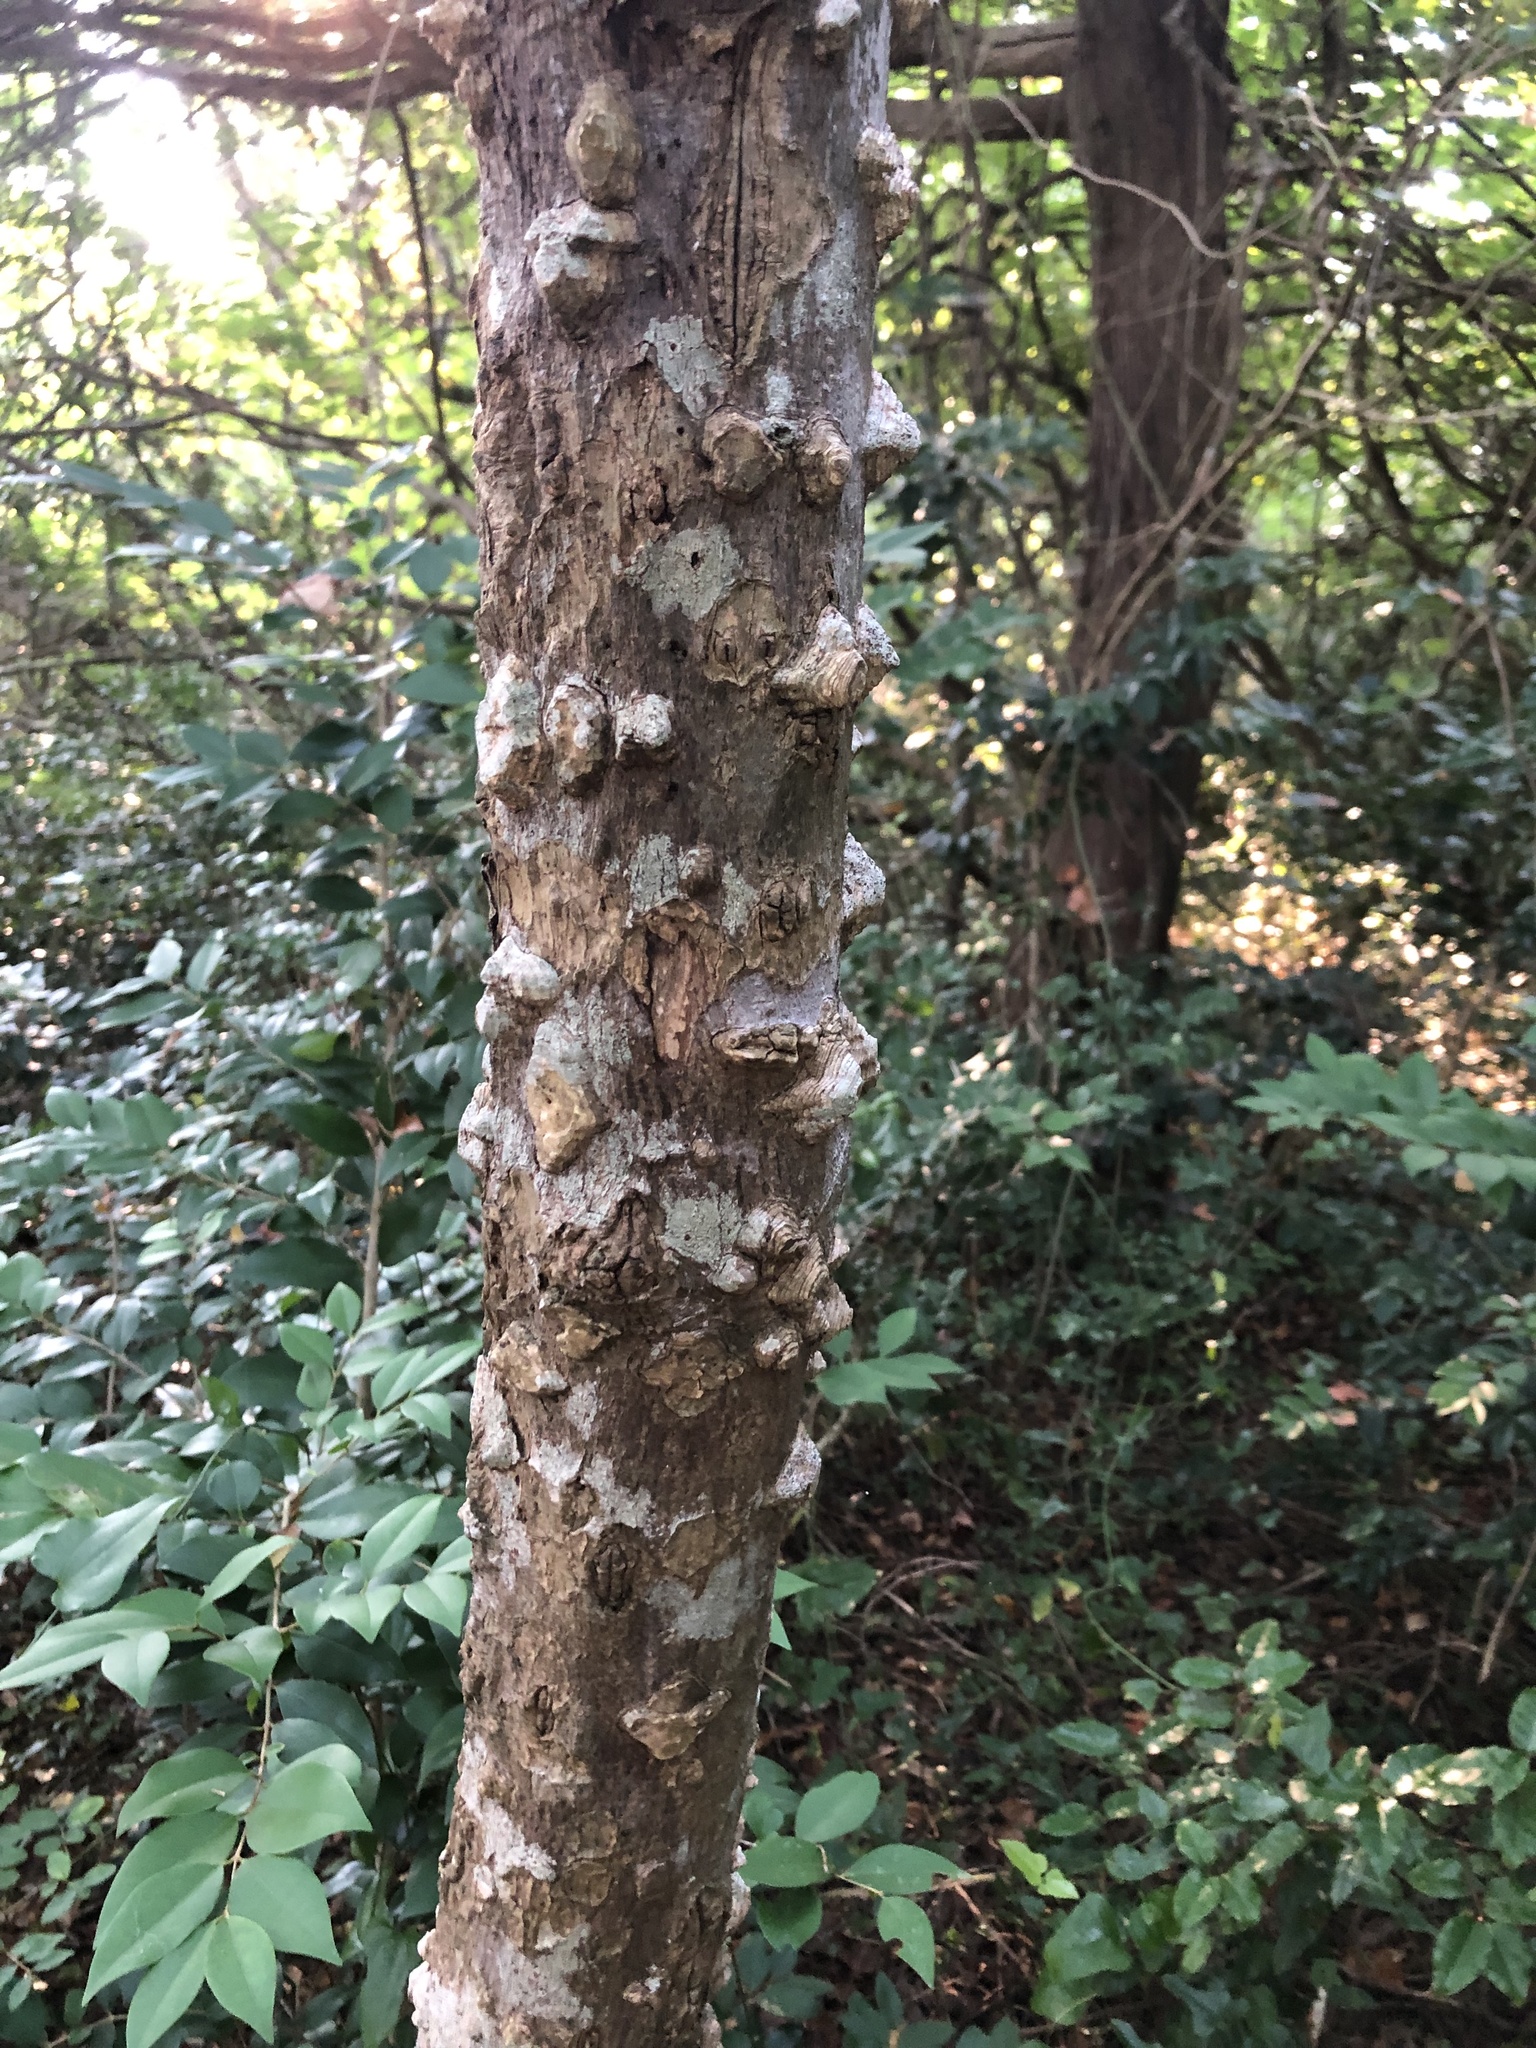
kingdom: Plantae
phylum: Tracheophyta
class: Magnoliopsida
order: Sapindales
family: Rutaceae
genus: Zanthoxylum
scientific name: Zanthoxylum clava-herculis
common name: Hercules'-club
